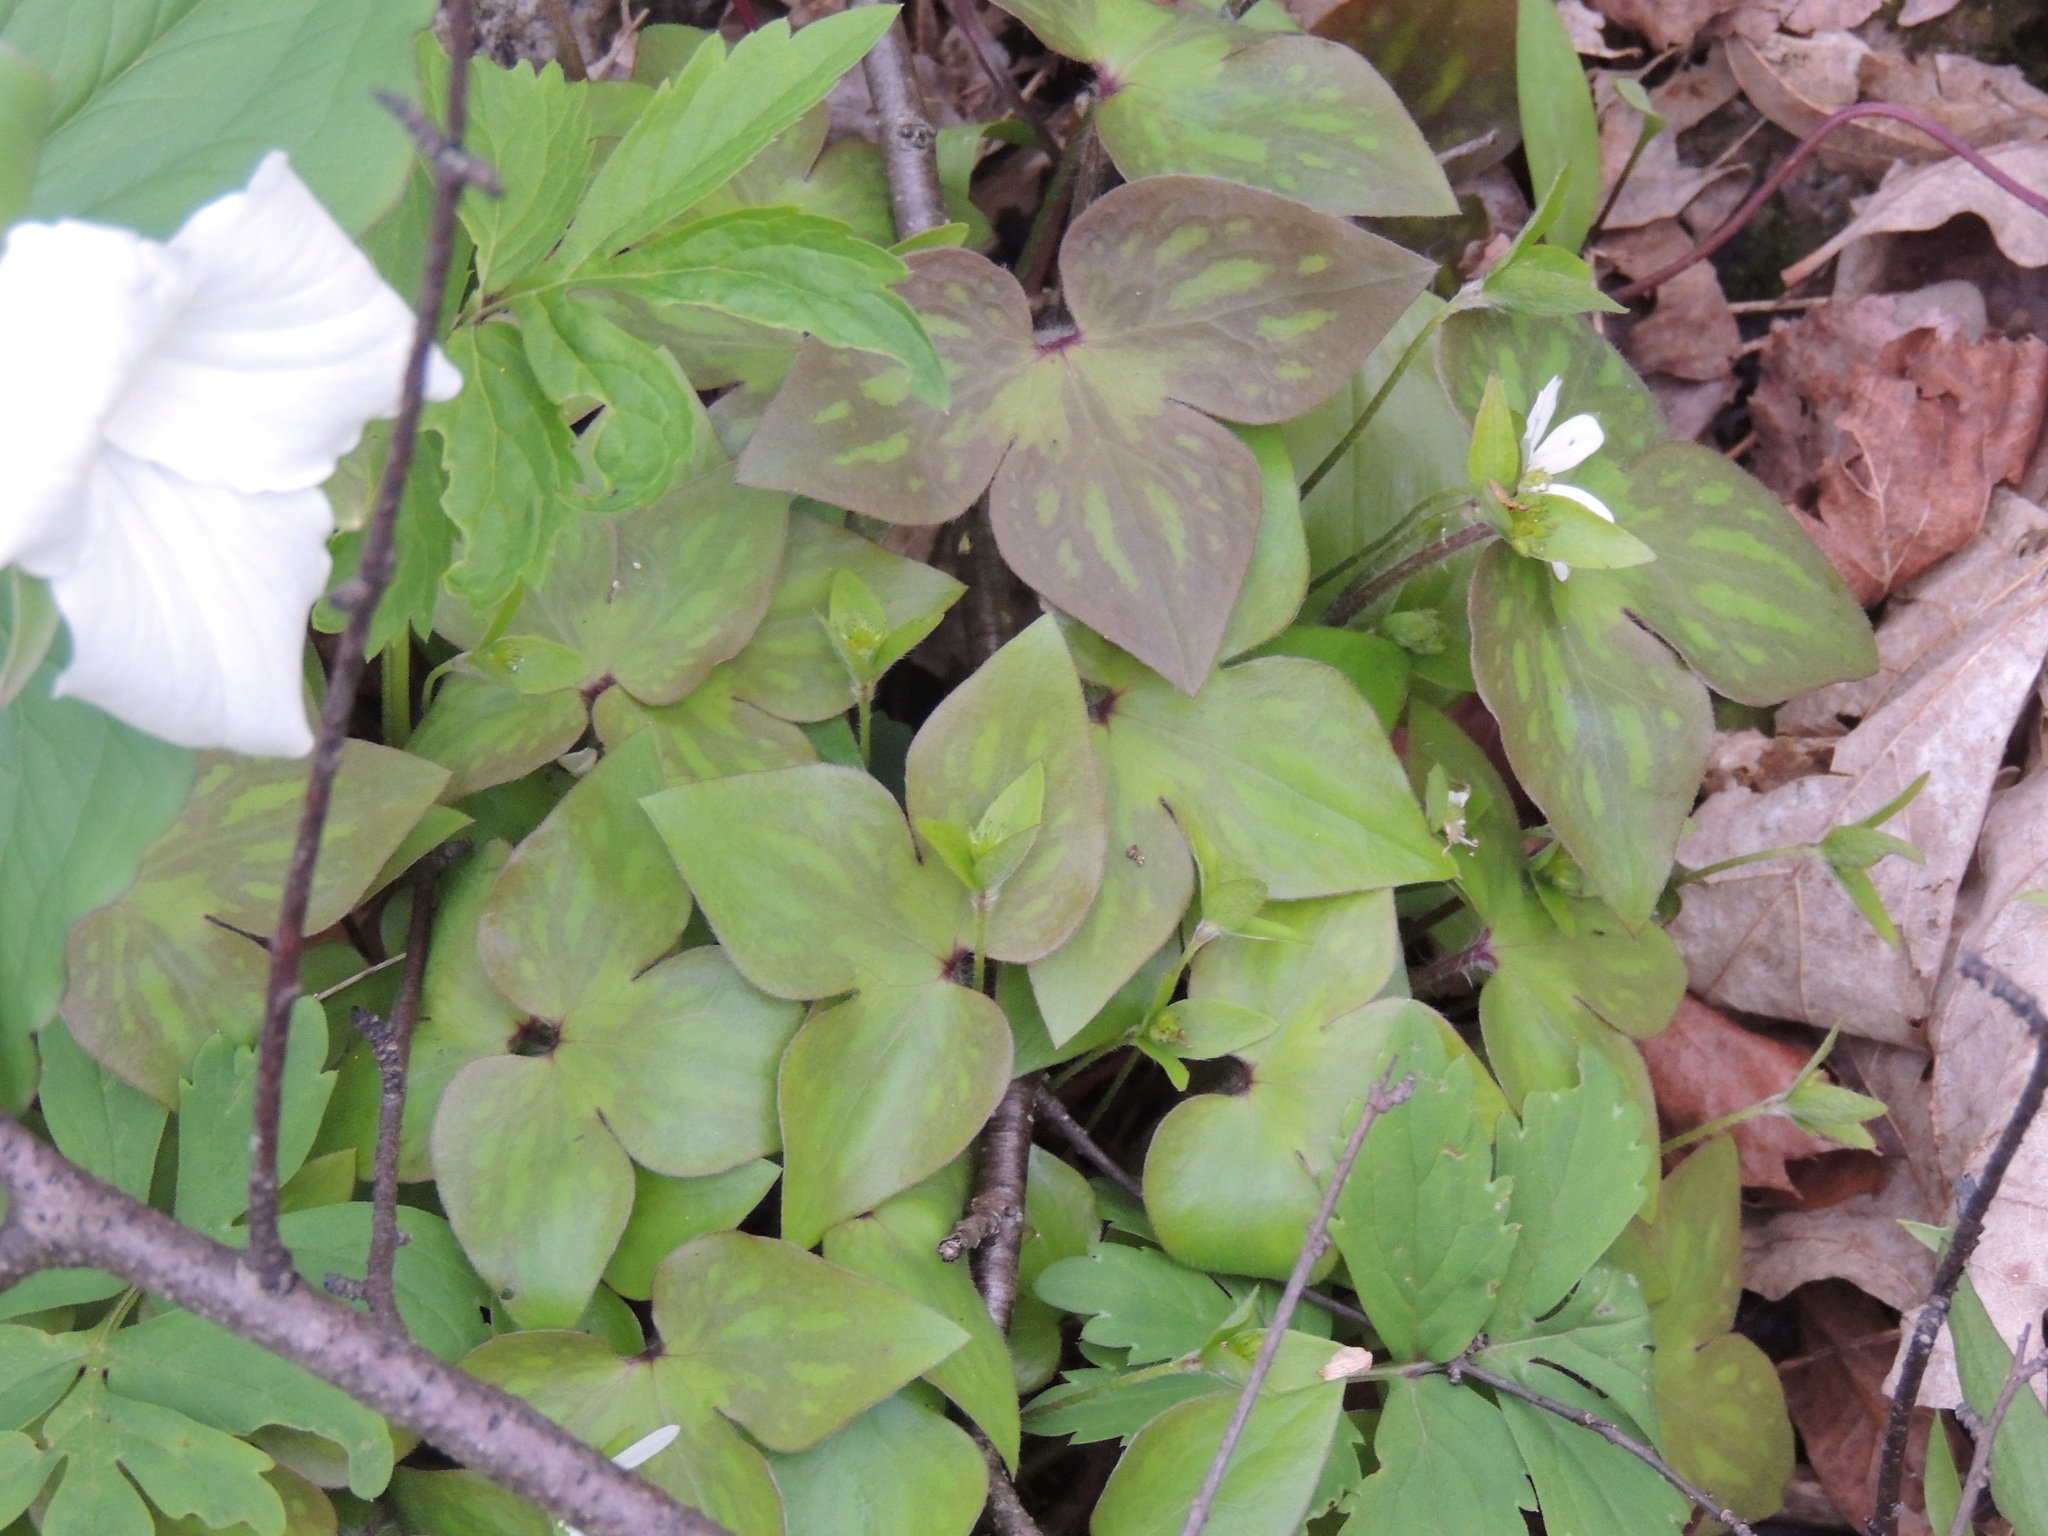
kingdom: Plantae
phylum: Tracheophyta
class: Magnoliopsida
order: Ranunculales
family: Ranunculaceae
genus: Hepatica
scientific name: Hepatica acutiloba
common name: Sharp-lobed hepatica
